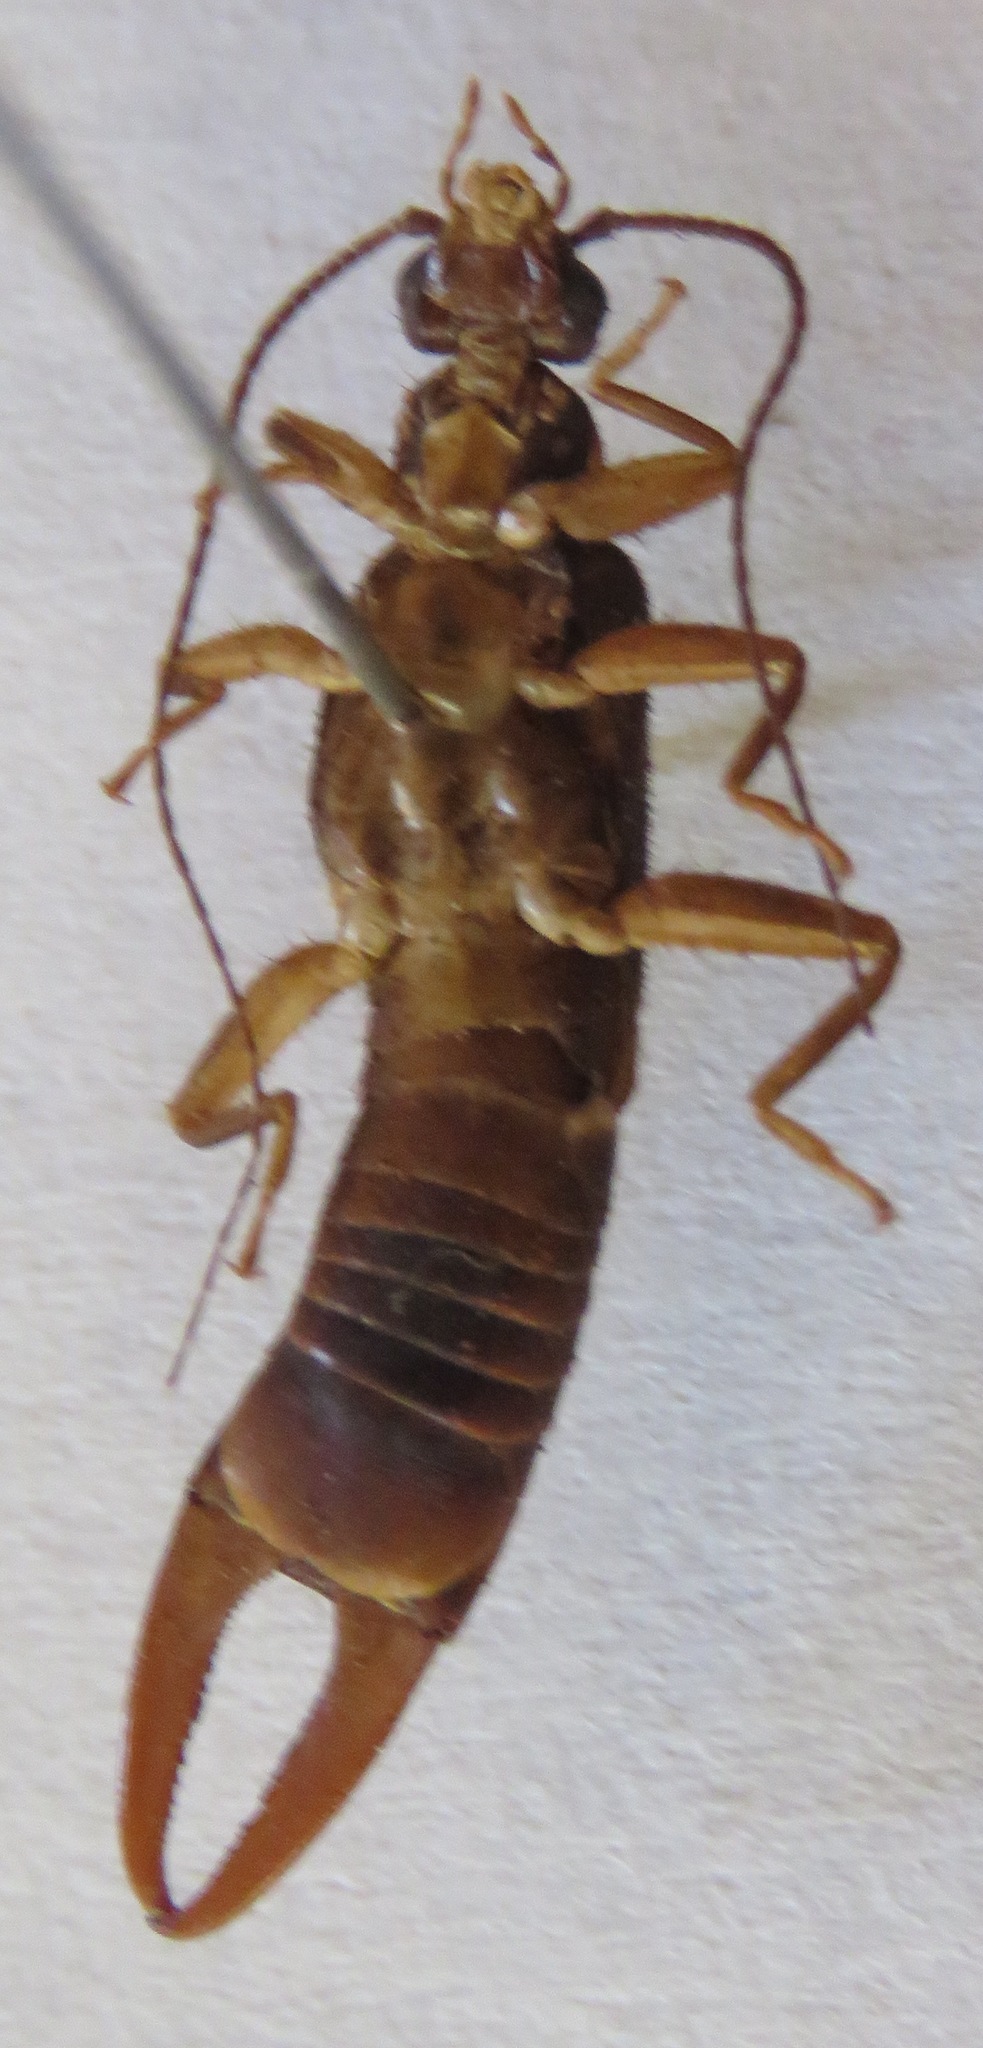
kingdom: Animalia
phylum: Arthropoda
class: Insecta
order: Dermaptera
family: Pygidicranidae
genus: Pyragra
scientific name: Pyragra fuscata
